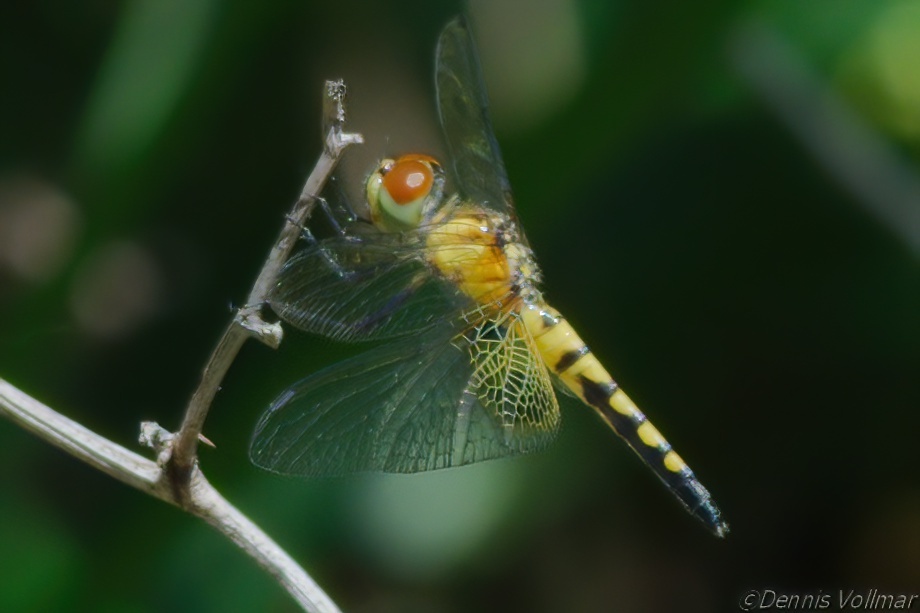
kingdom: Animalia
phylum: Arthropoda
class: Insecta
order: Odonata
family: Libellulidae
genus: Celithemis
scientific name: Celithemis amanda
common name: Amanda's pennant
